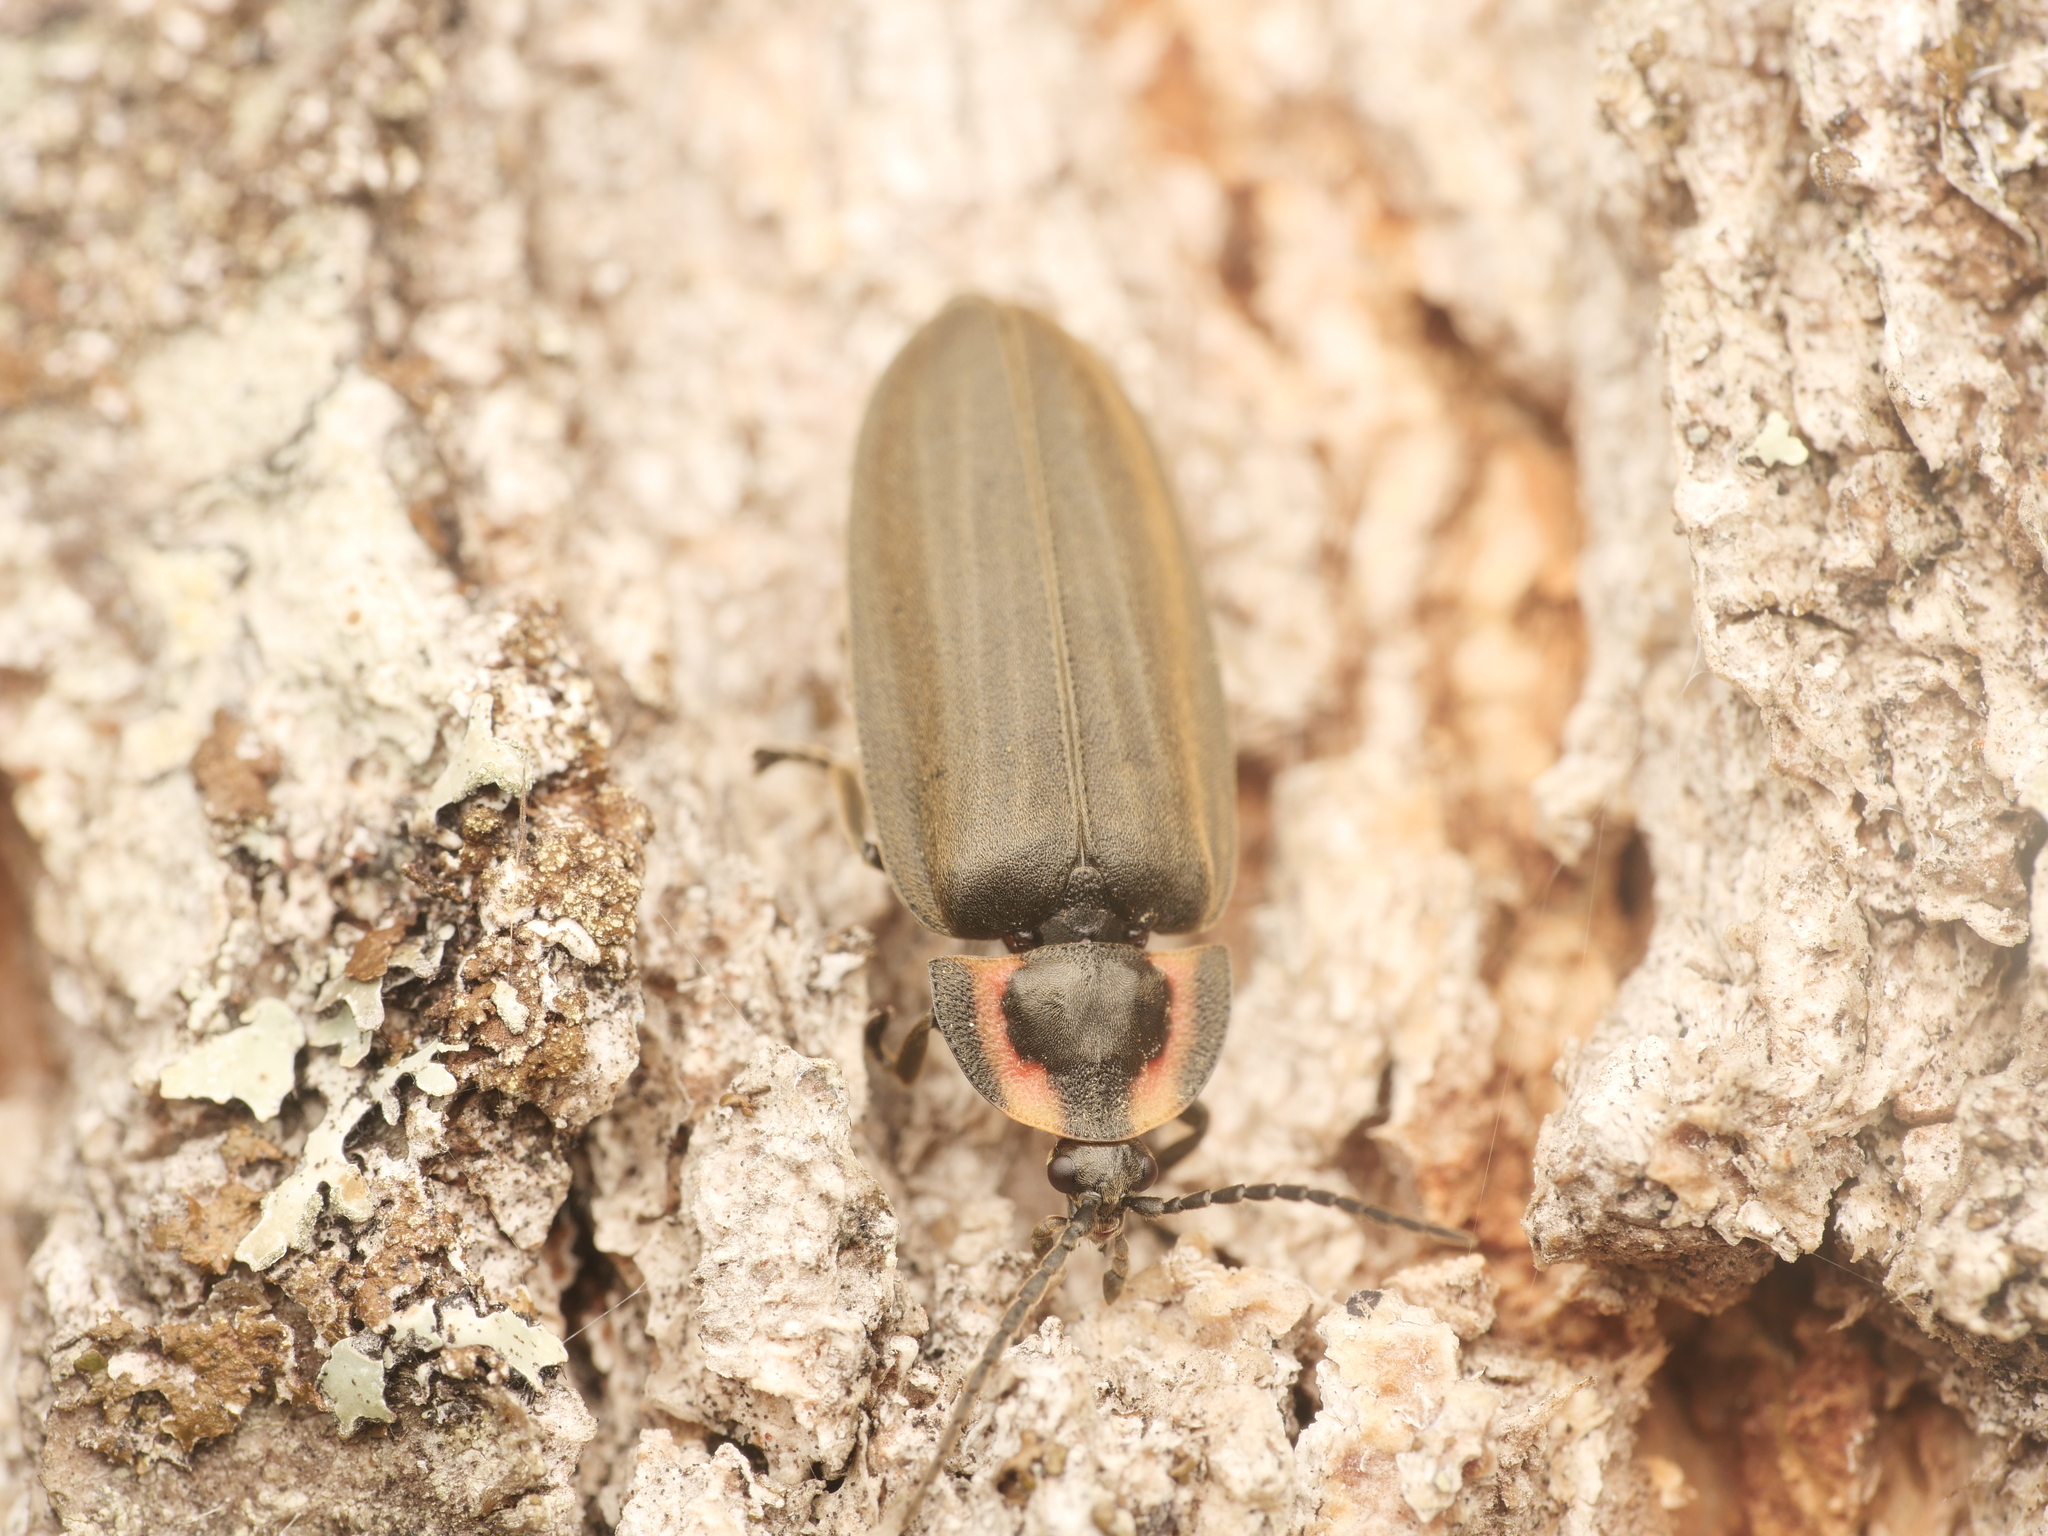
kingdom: Animalia
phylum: Arthropoda
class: Insecta
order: Coleoptera
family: Lampyridae
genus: Photinus
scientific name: Photinus corrusca
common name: Winter firefly
